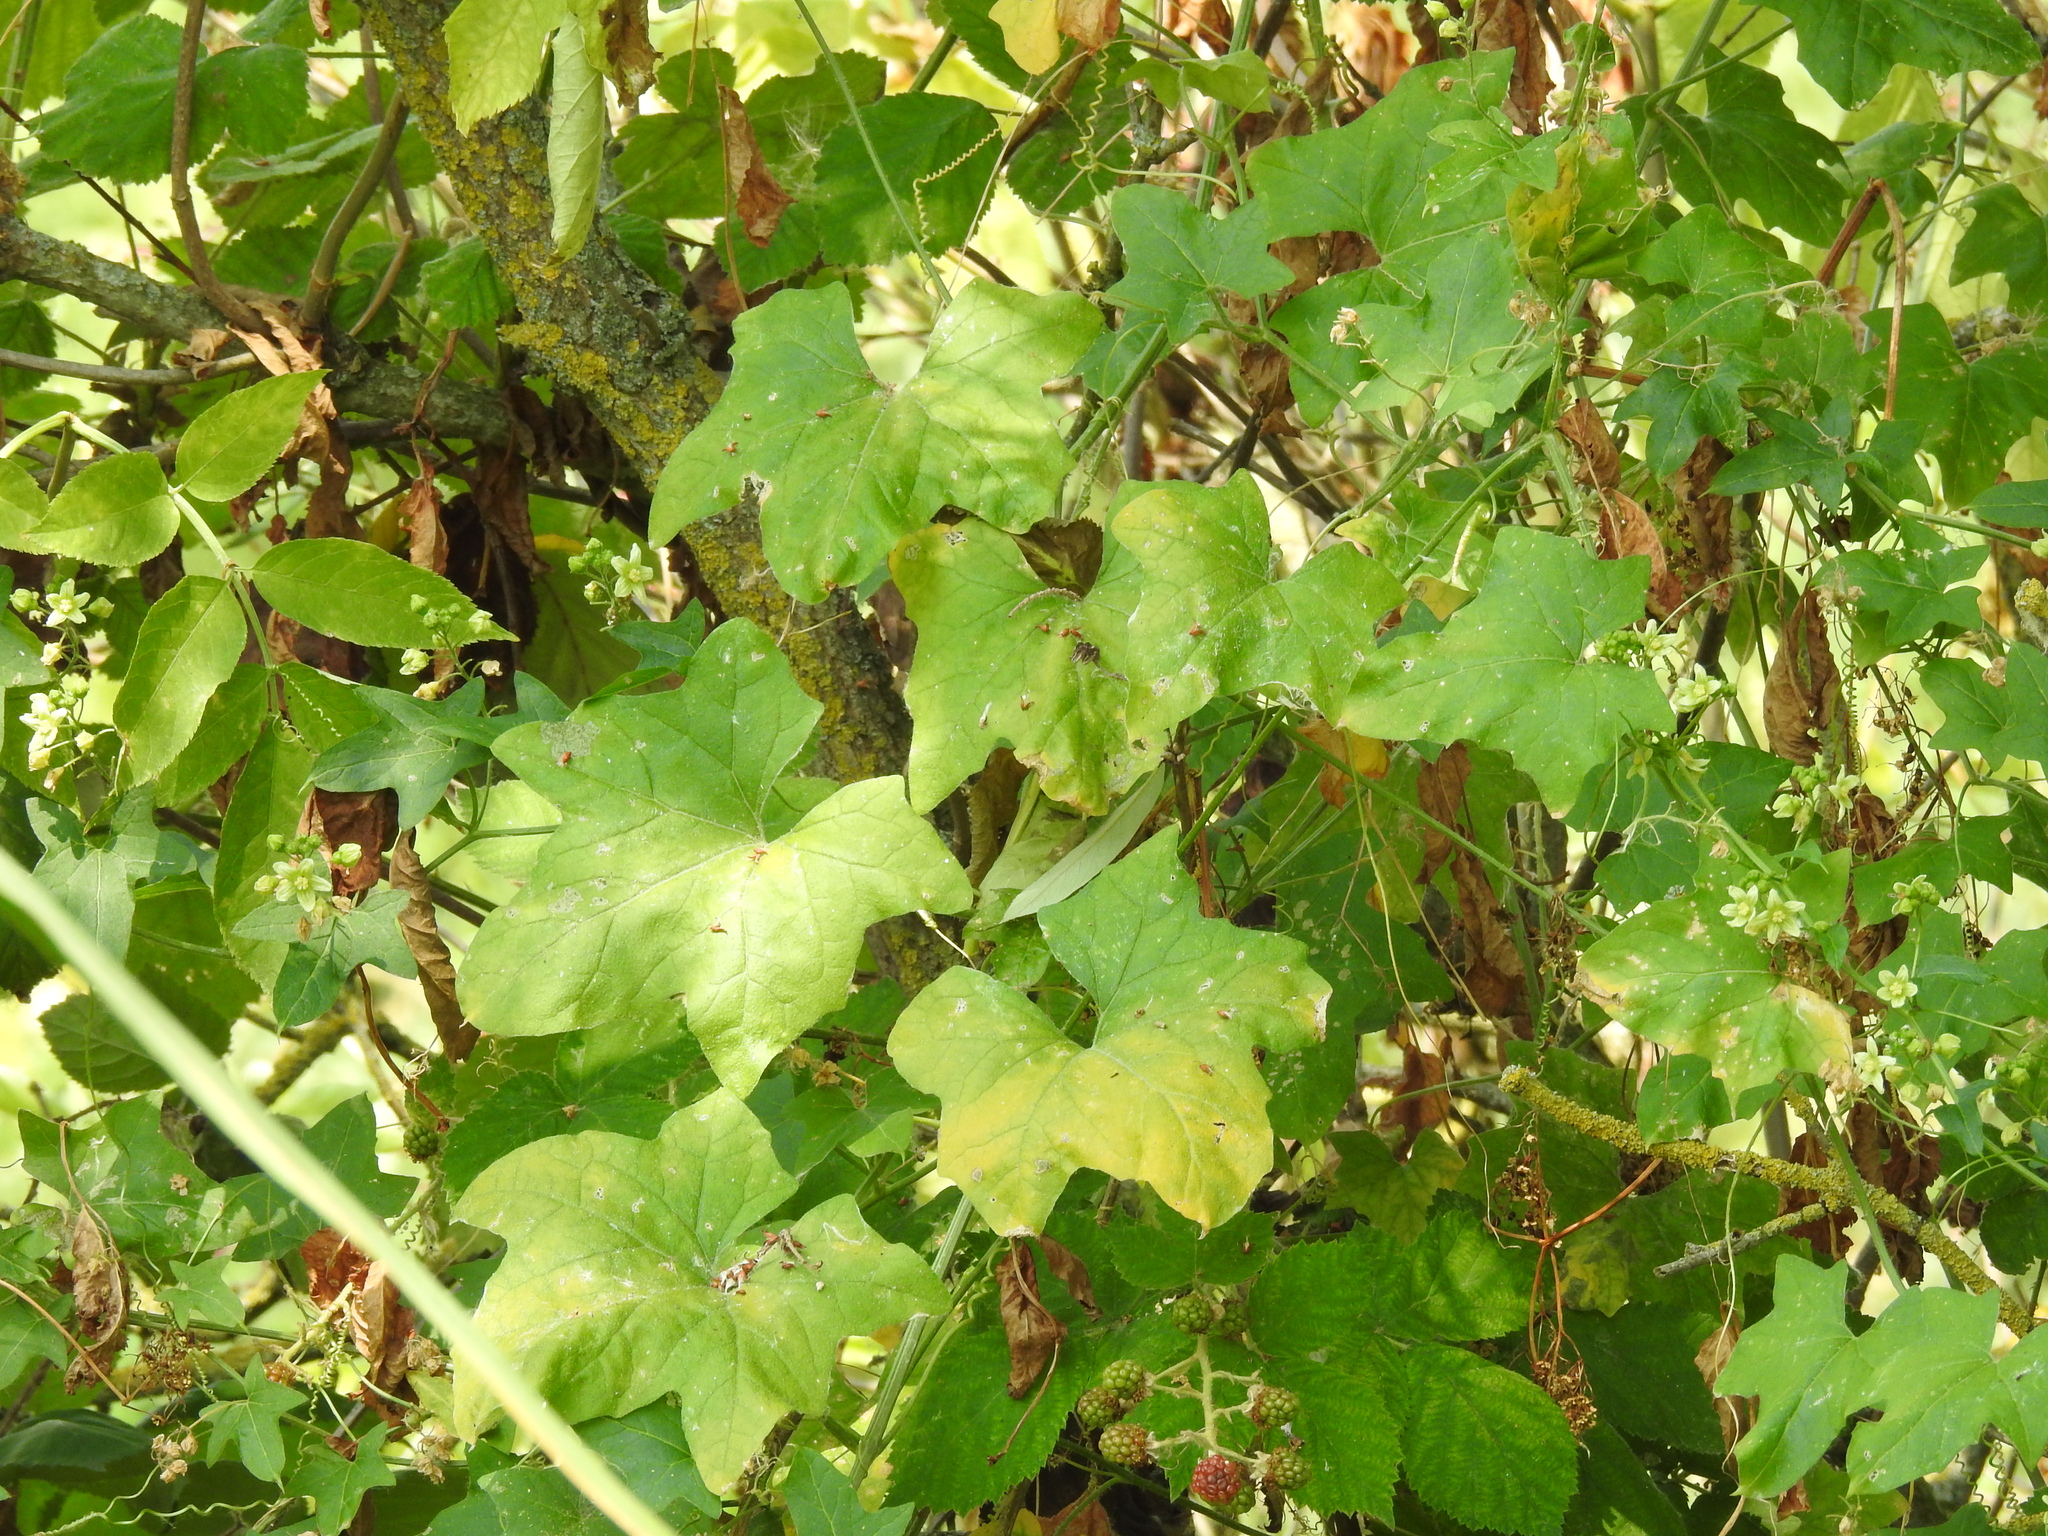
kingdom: Plantae
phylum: Tracheophyta
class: Magnoliopsida
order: Cucurbitales
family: Cucurbitaceae
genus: Bryonia
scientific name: Bryonia cretica
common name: Cretan bryony
